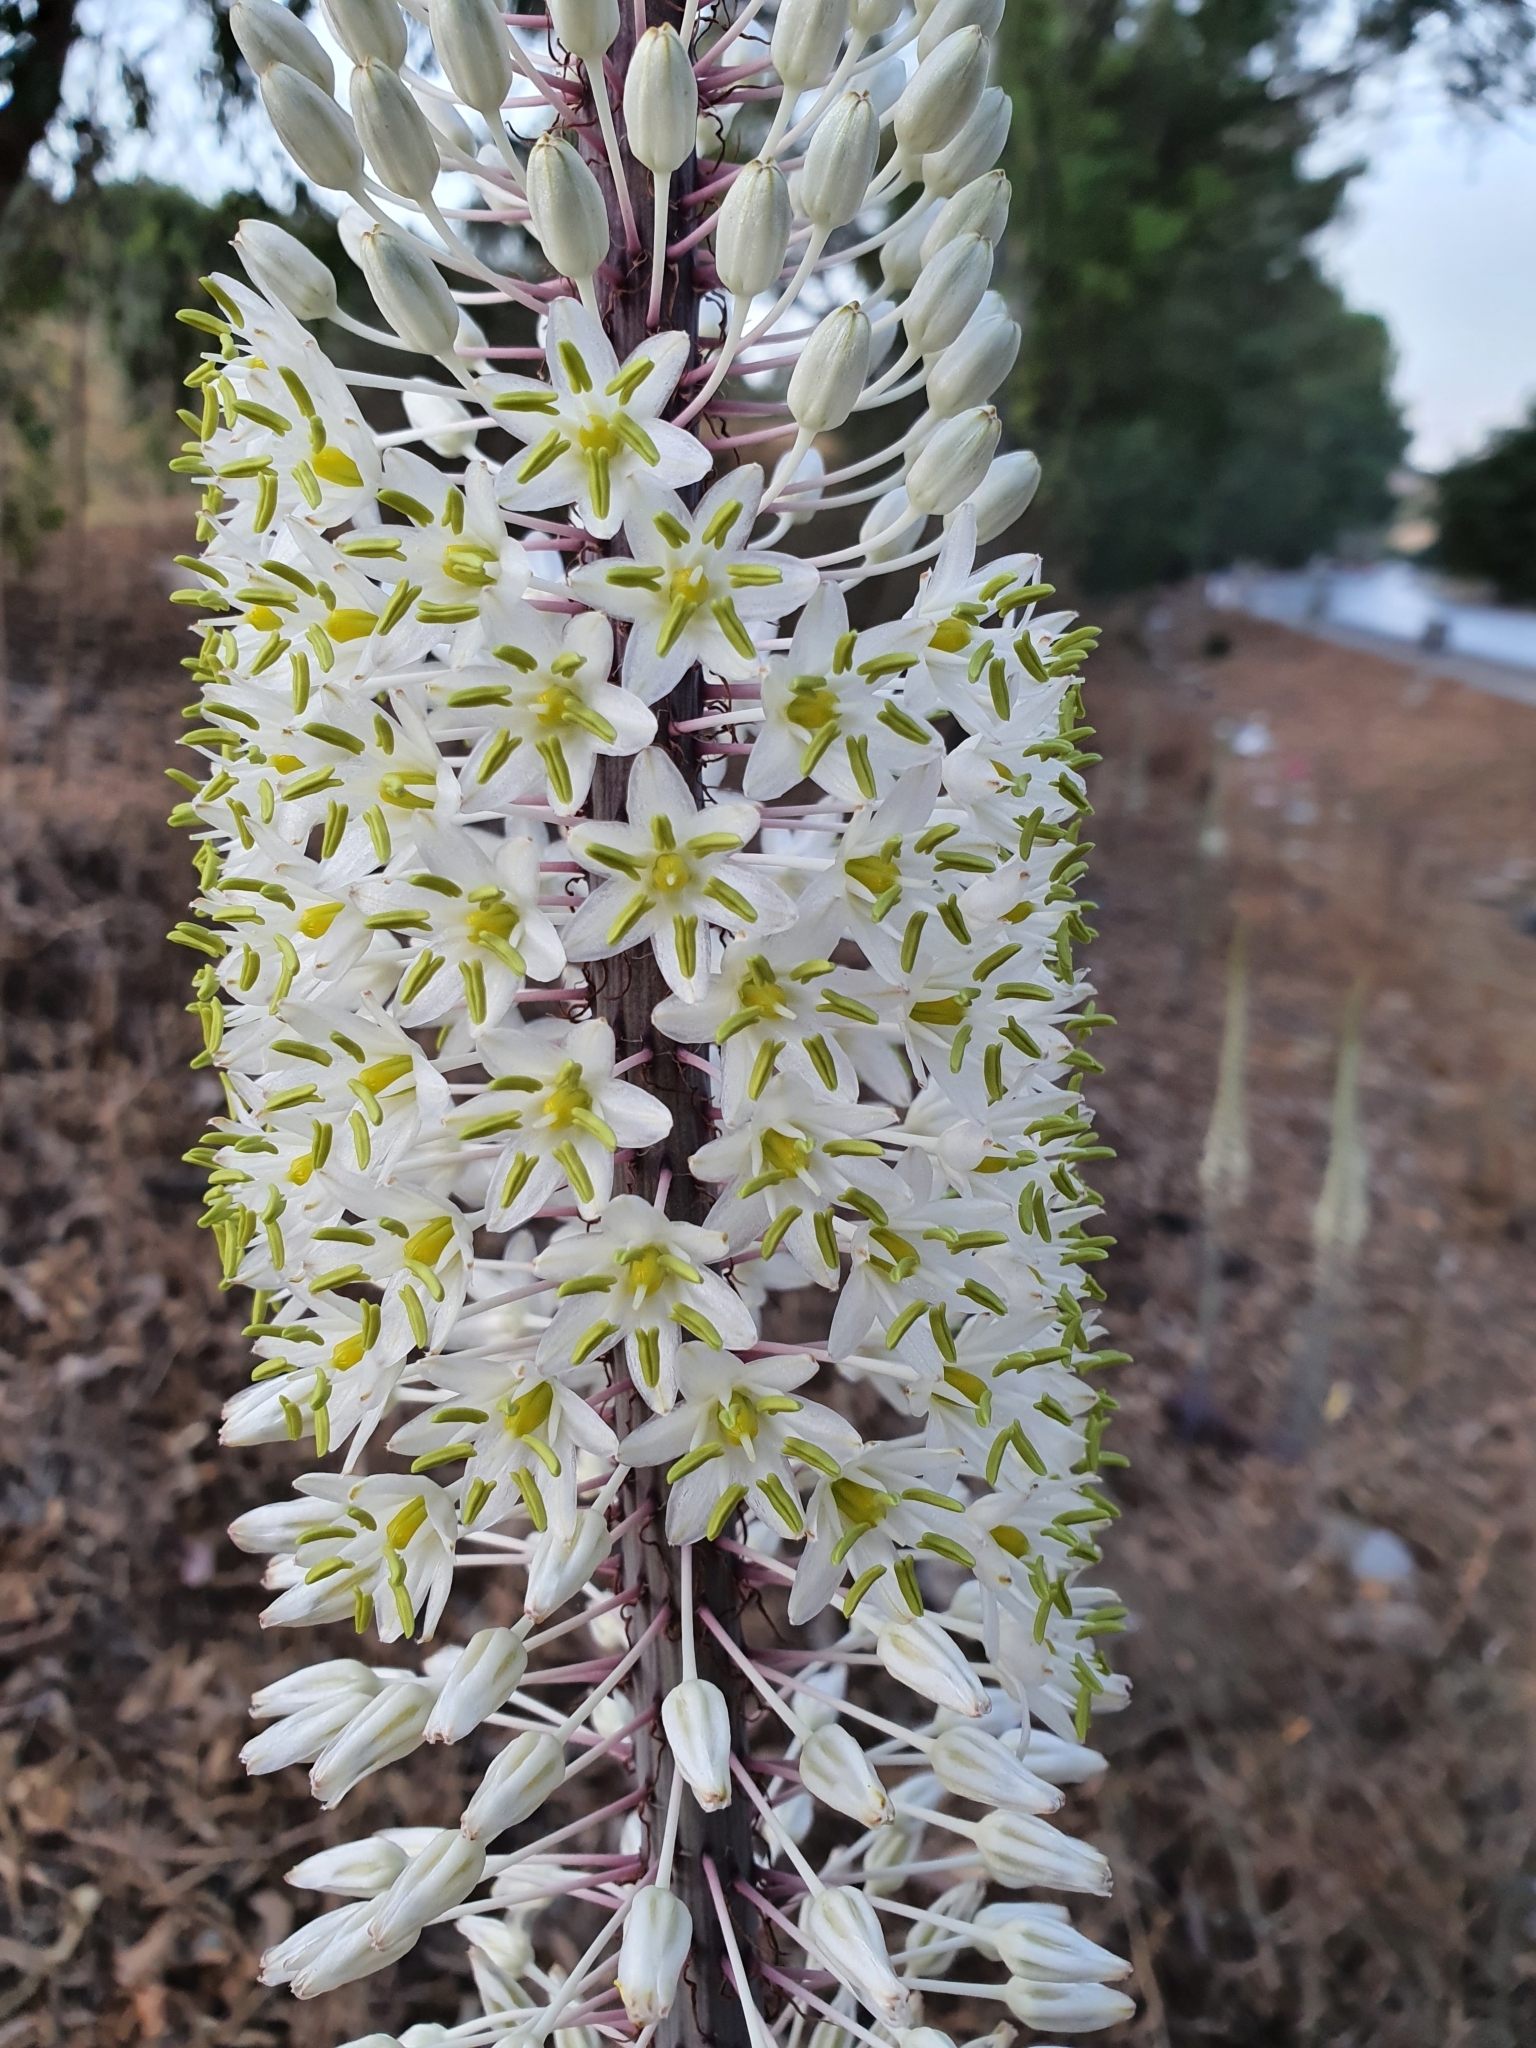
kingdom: Plantae
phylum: Tracheophyta
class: Liliopsida
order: Asparagales
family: Asparagaceae
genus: Drimia
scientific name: Drimia numidica
